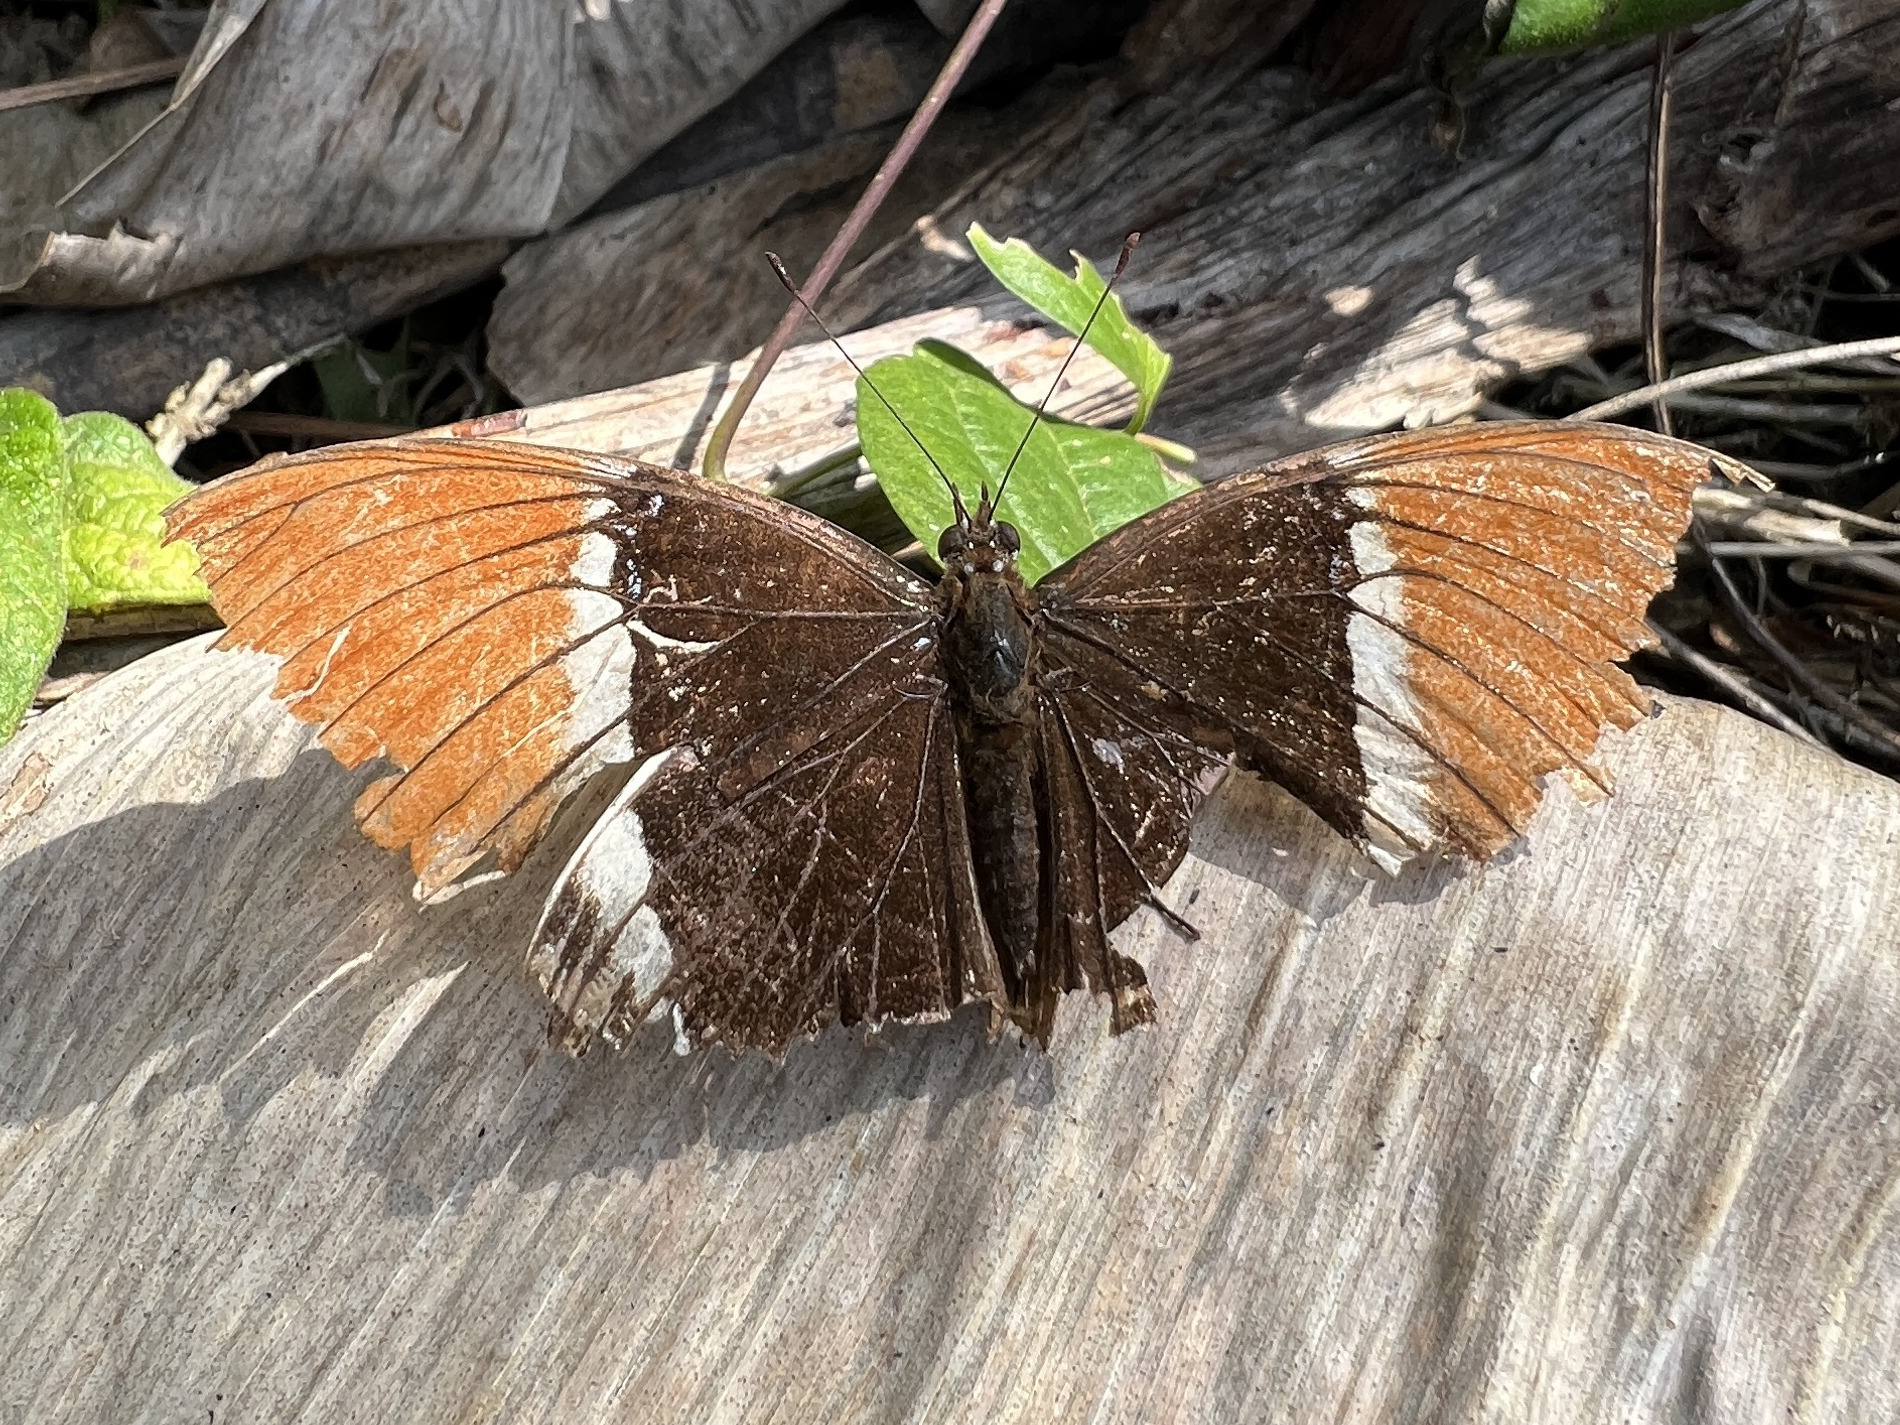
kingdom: Animalia
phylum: Arthropoda
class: Insecta
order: Lepidoptera
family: Nymphalidae
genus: Siproeta
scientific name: Siproeta epaphus
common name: Rusty-tipped page
